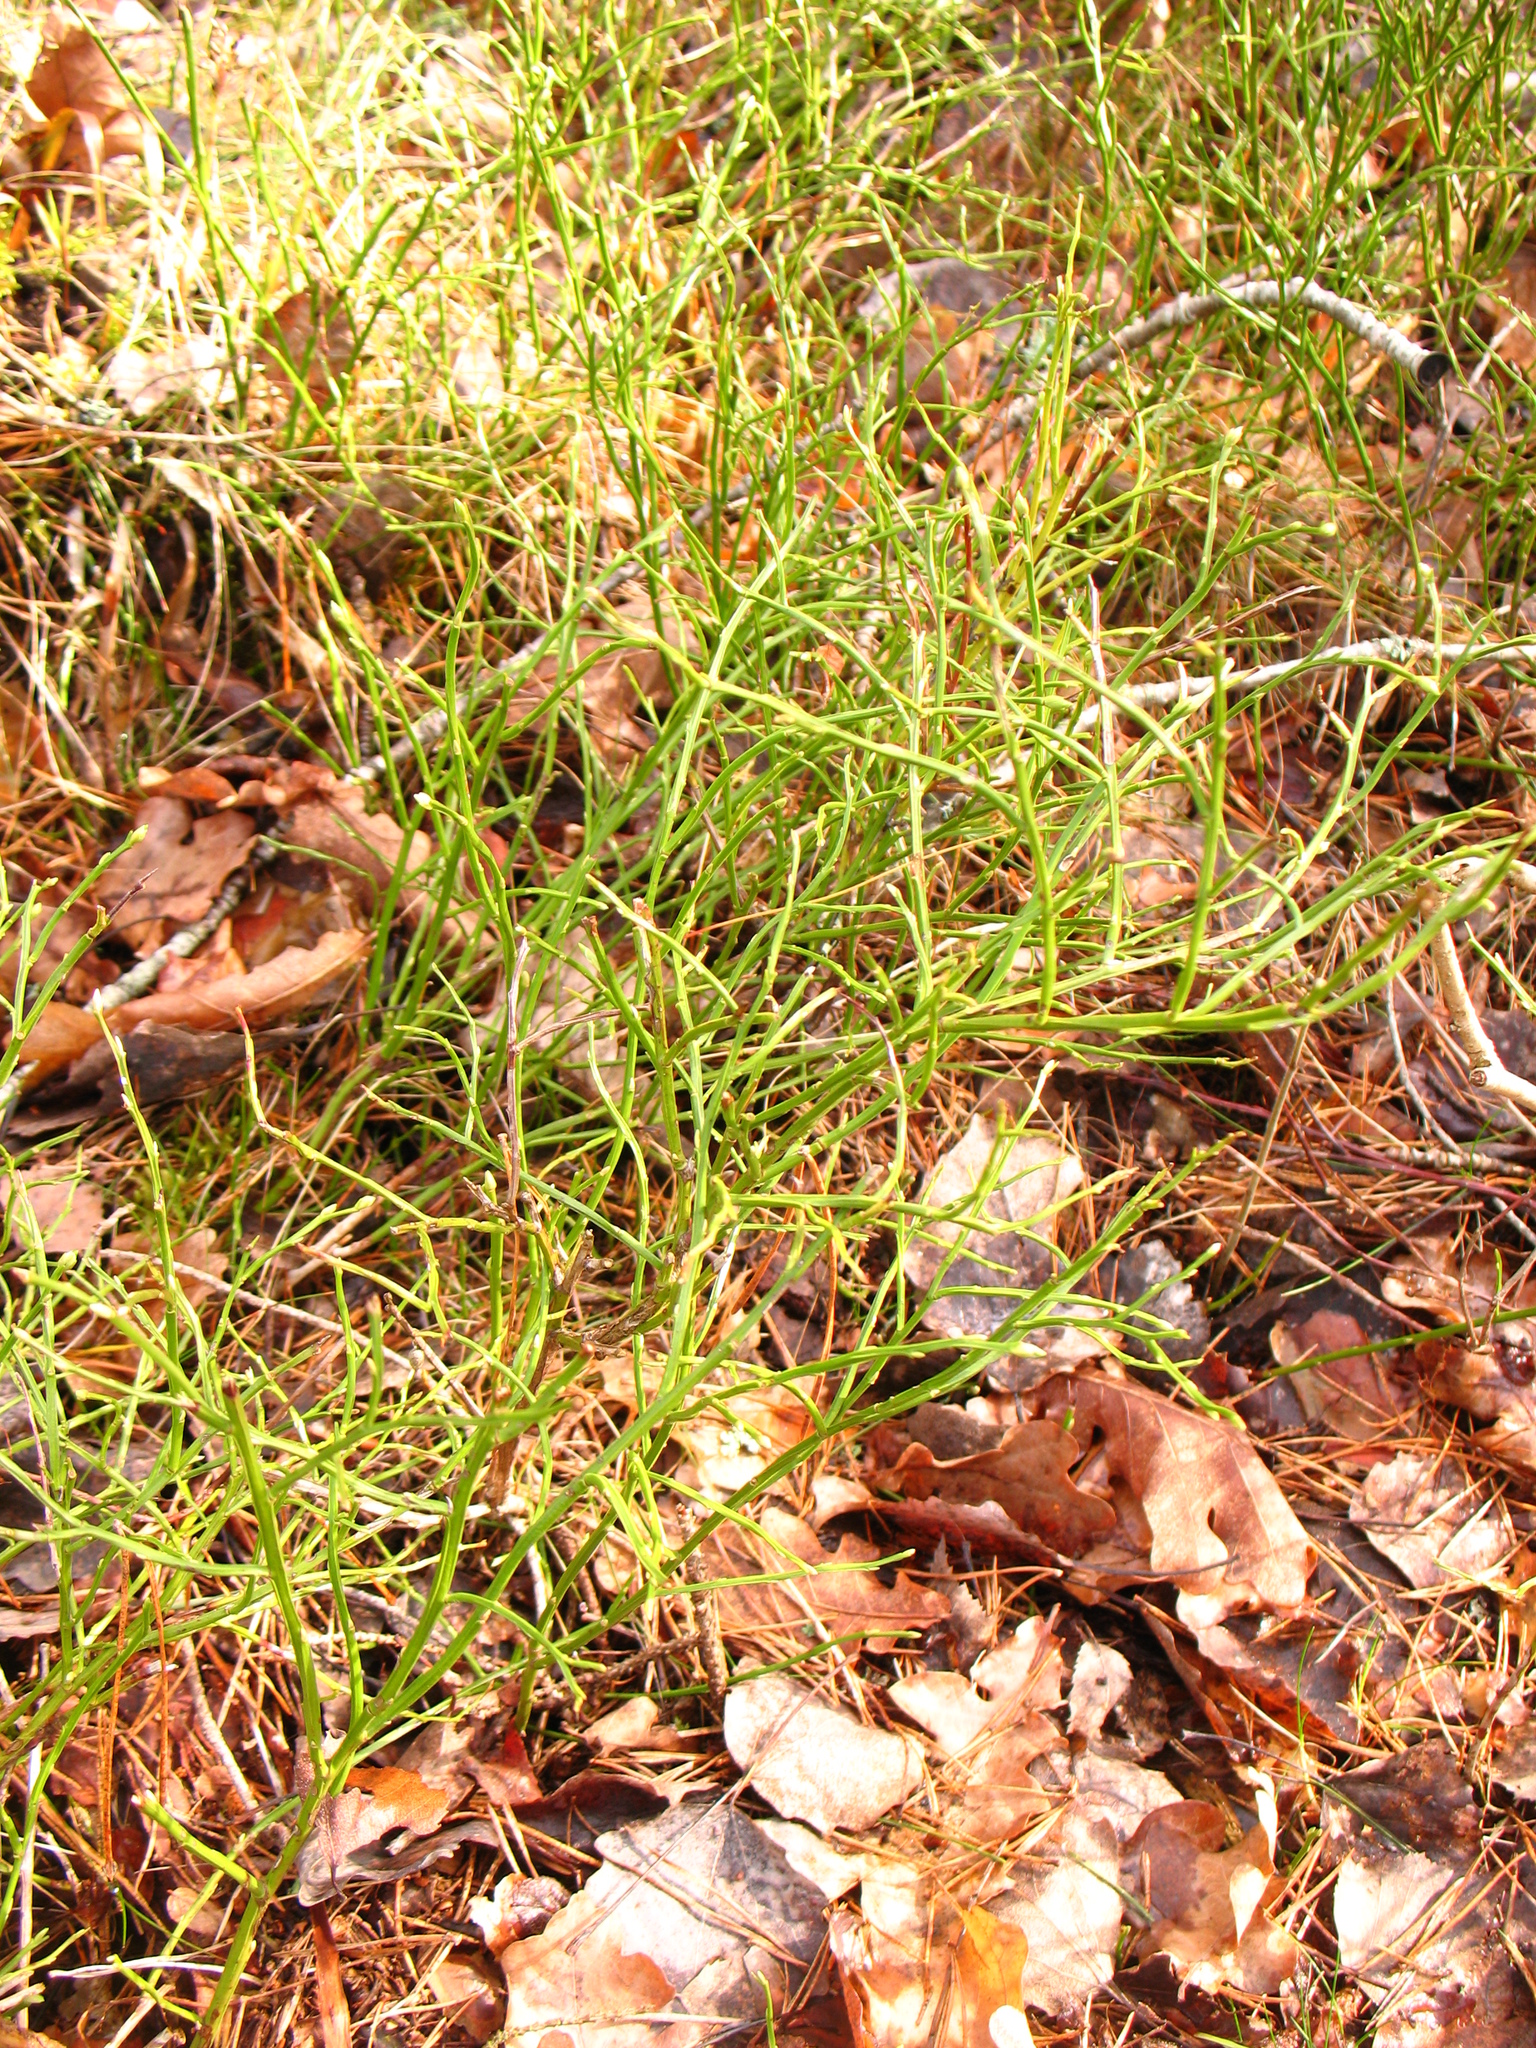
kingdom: Plantae
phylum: Tracheophyta
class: Magnoliopsida
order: Ericales
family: Ericaceae
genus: Vaccinium
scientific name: Vaccinium myrtillus
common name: Bilberry
